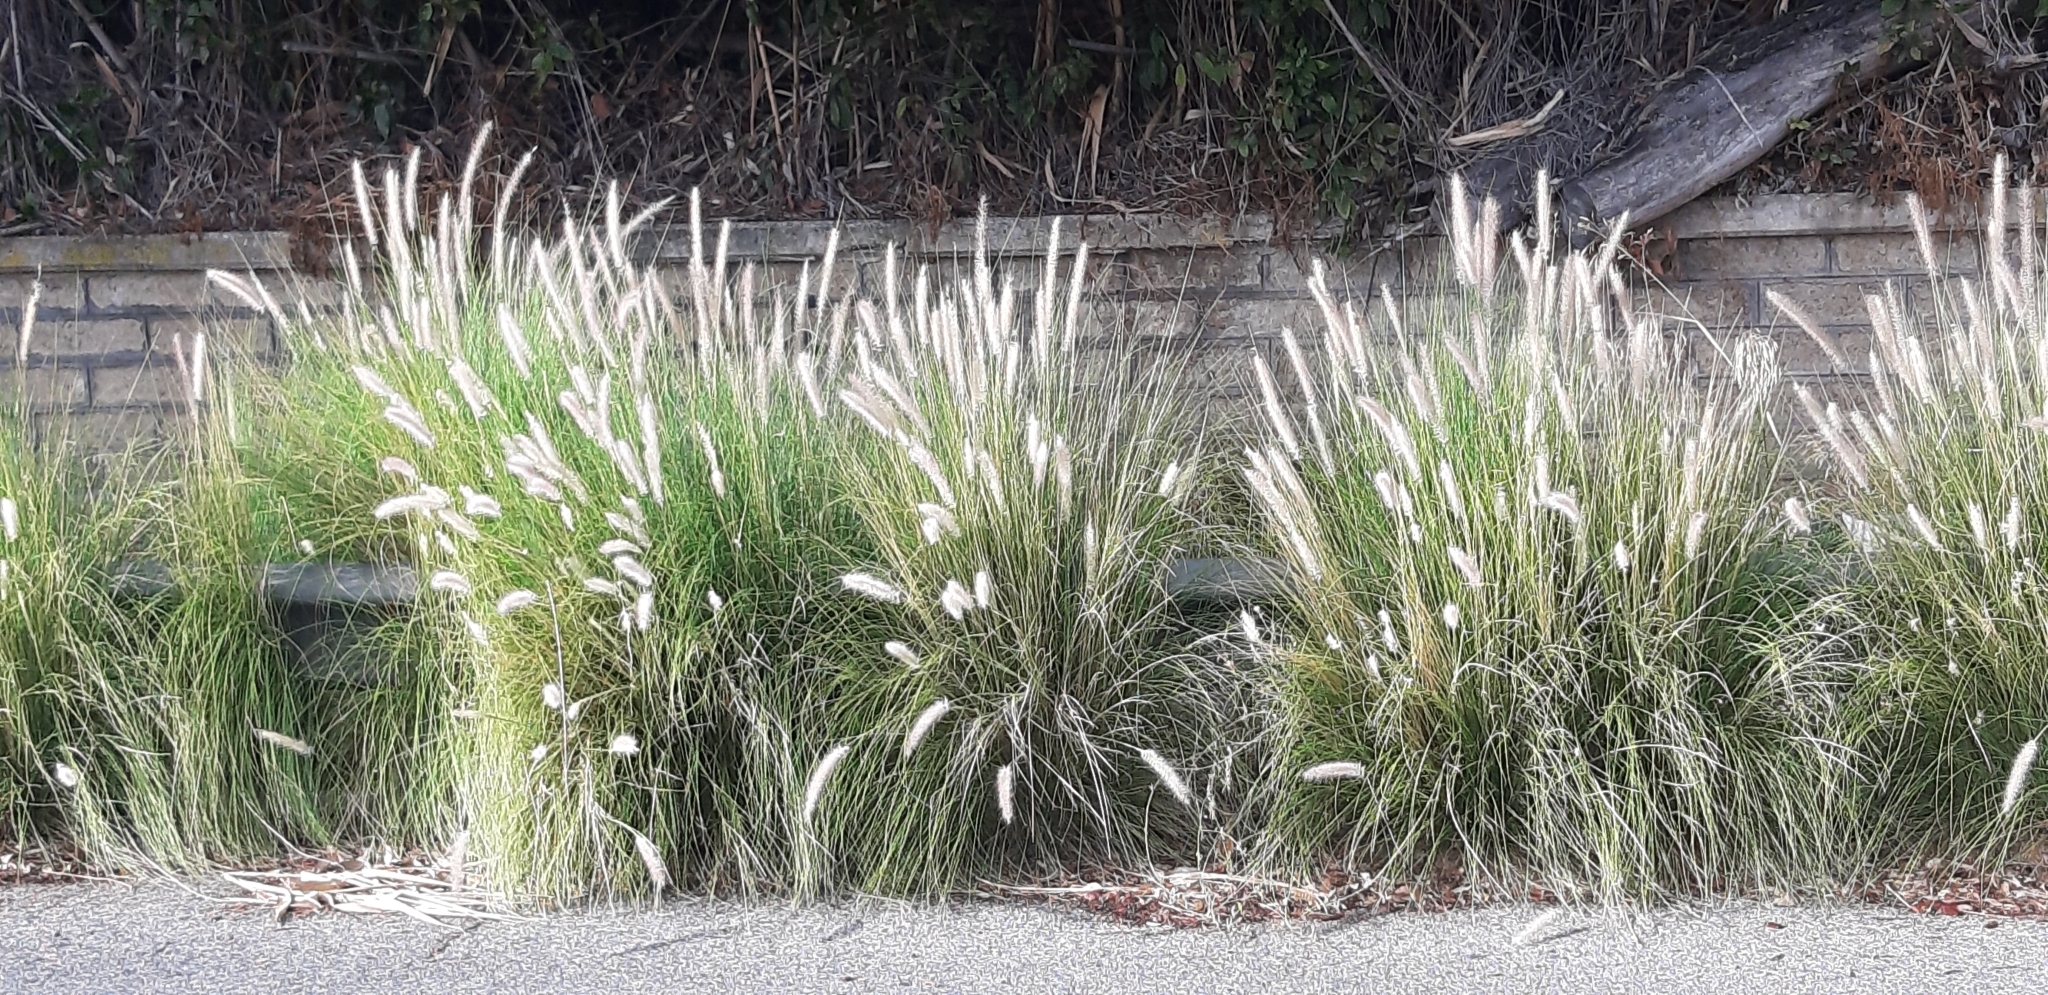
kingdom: Plantae
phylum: Tracheophyta
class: Liliopsida
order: Poales
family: Poaceae
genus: Cenchrus
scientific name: Cenchrus setaceus
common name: Crimson fountaingrass
